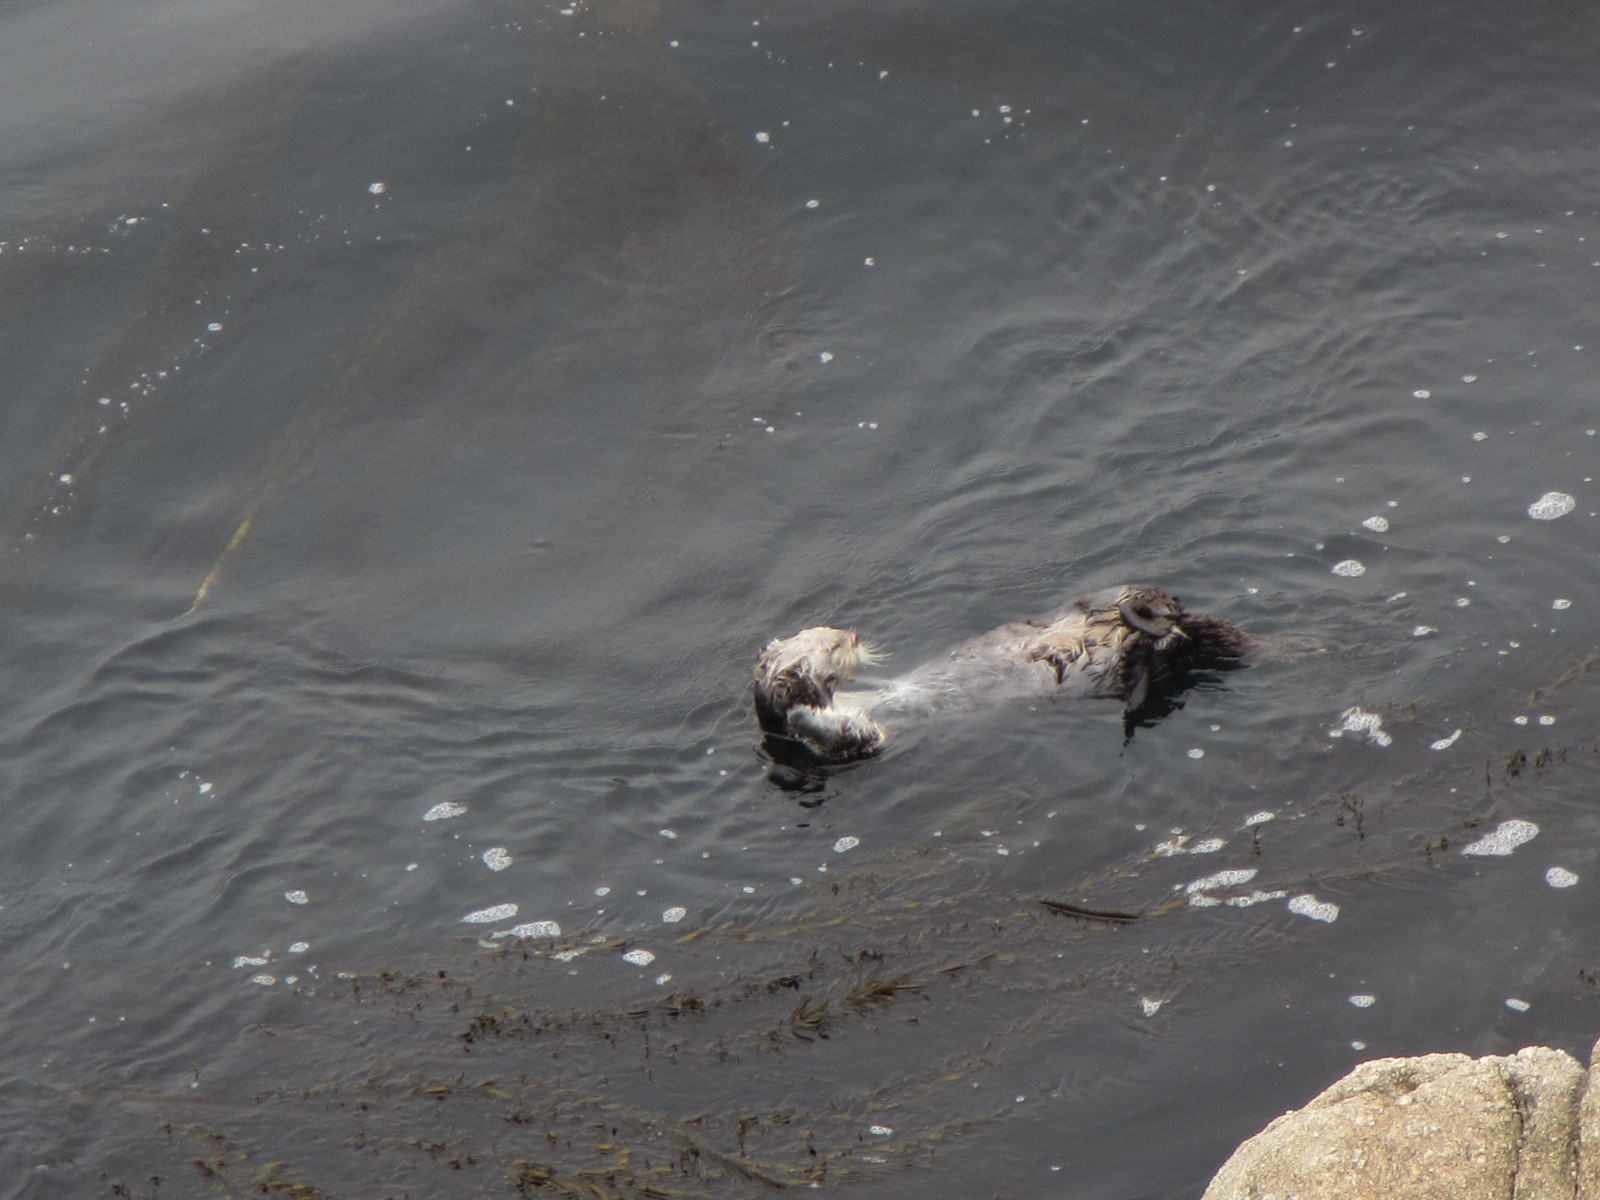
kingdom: Animalia
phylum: Chordata
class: Mammalia
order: Carnivora
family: Mustelidae
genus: Enhydra
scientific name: Enhydra lutris
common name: Sea otter
